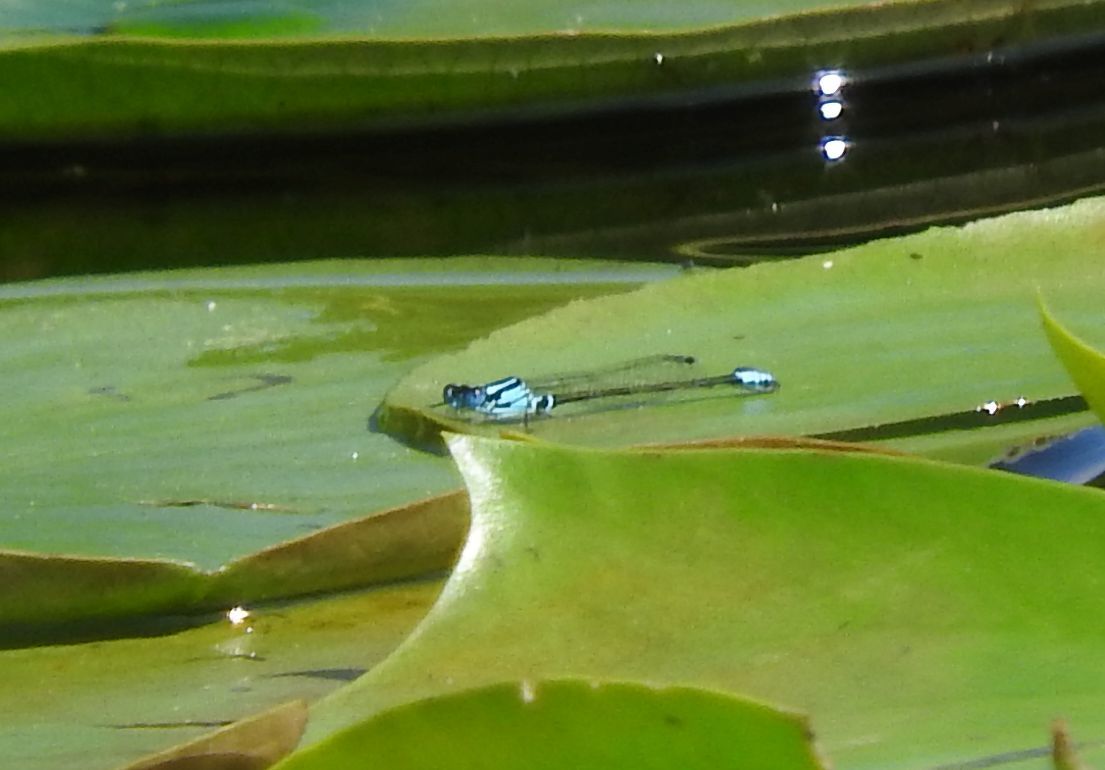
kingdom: Animalia
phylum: Arthropoda
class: Insecta
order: Odonata
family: Coenagrionidae
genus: Ischnura
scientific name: Ischnura kellicotti
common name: Lilypad forktail
